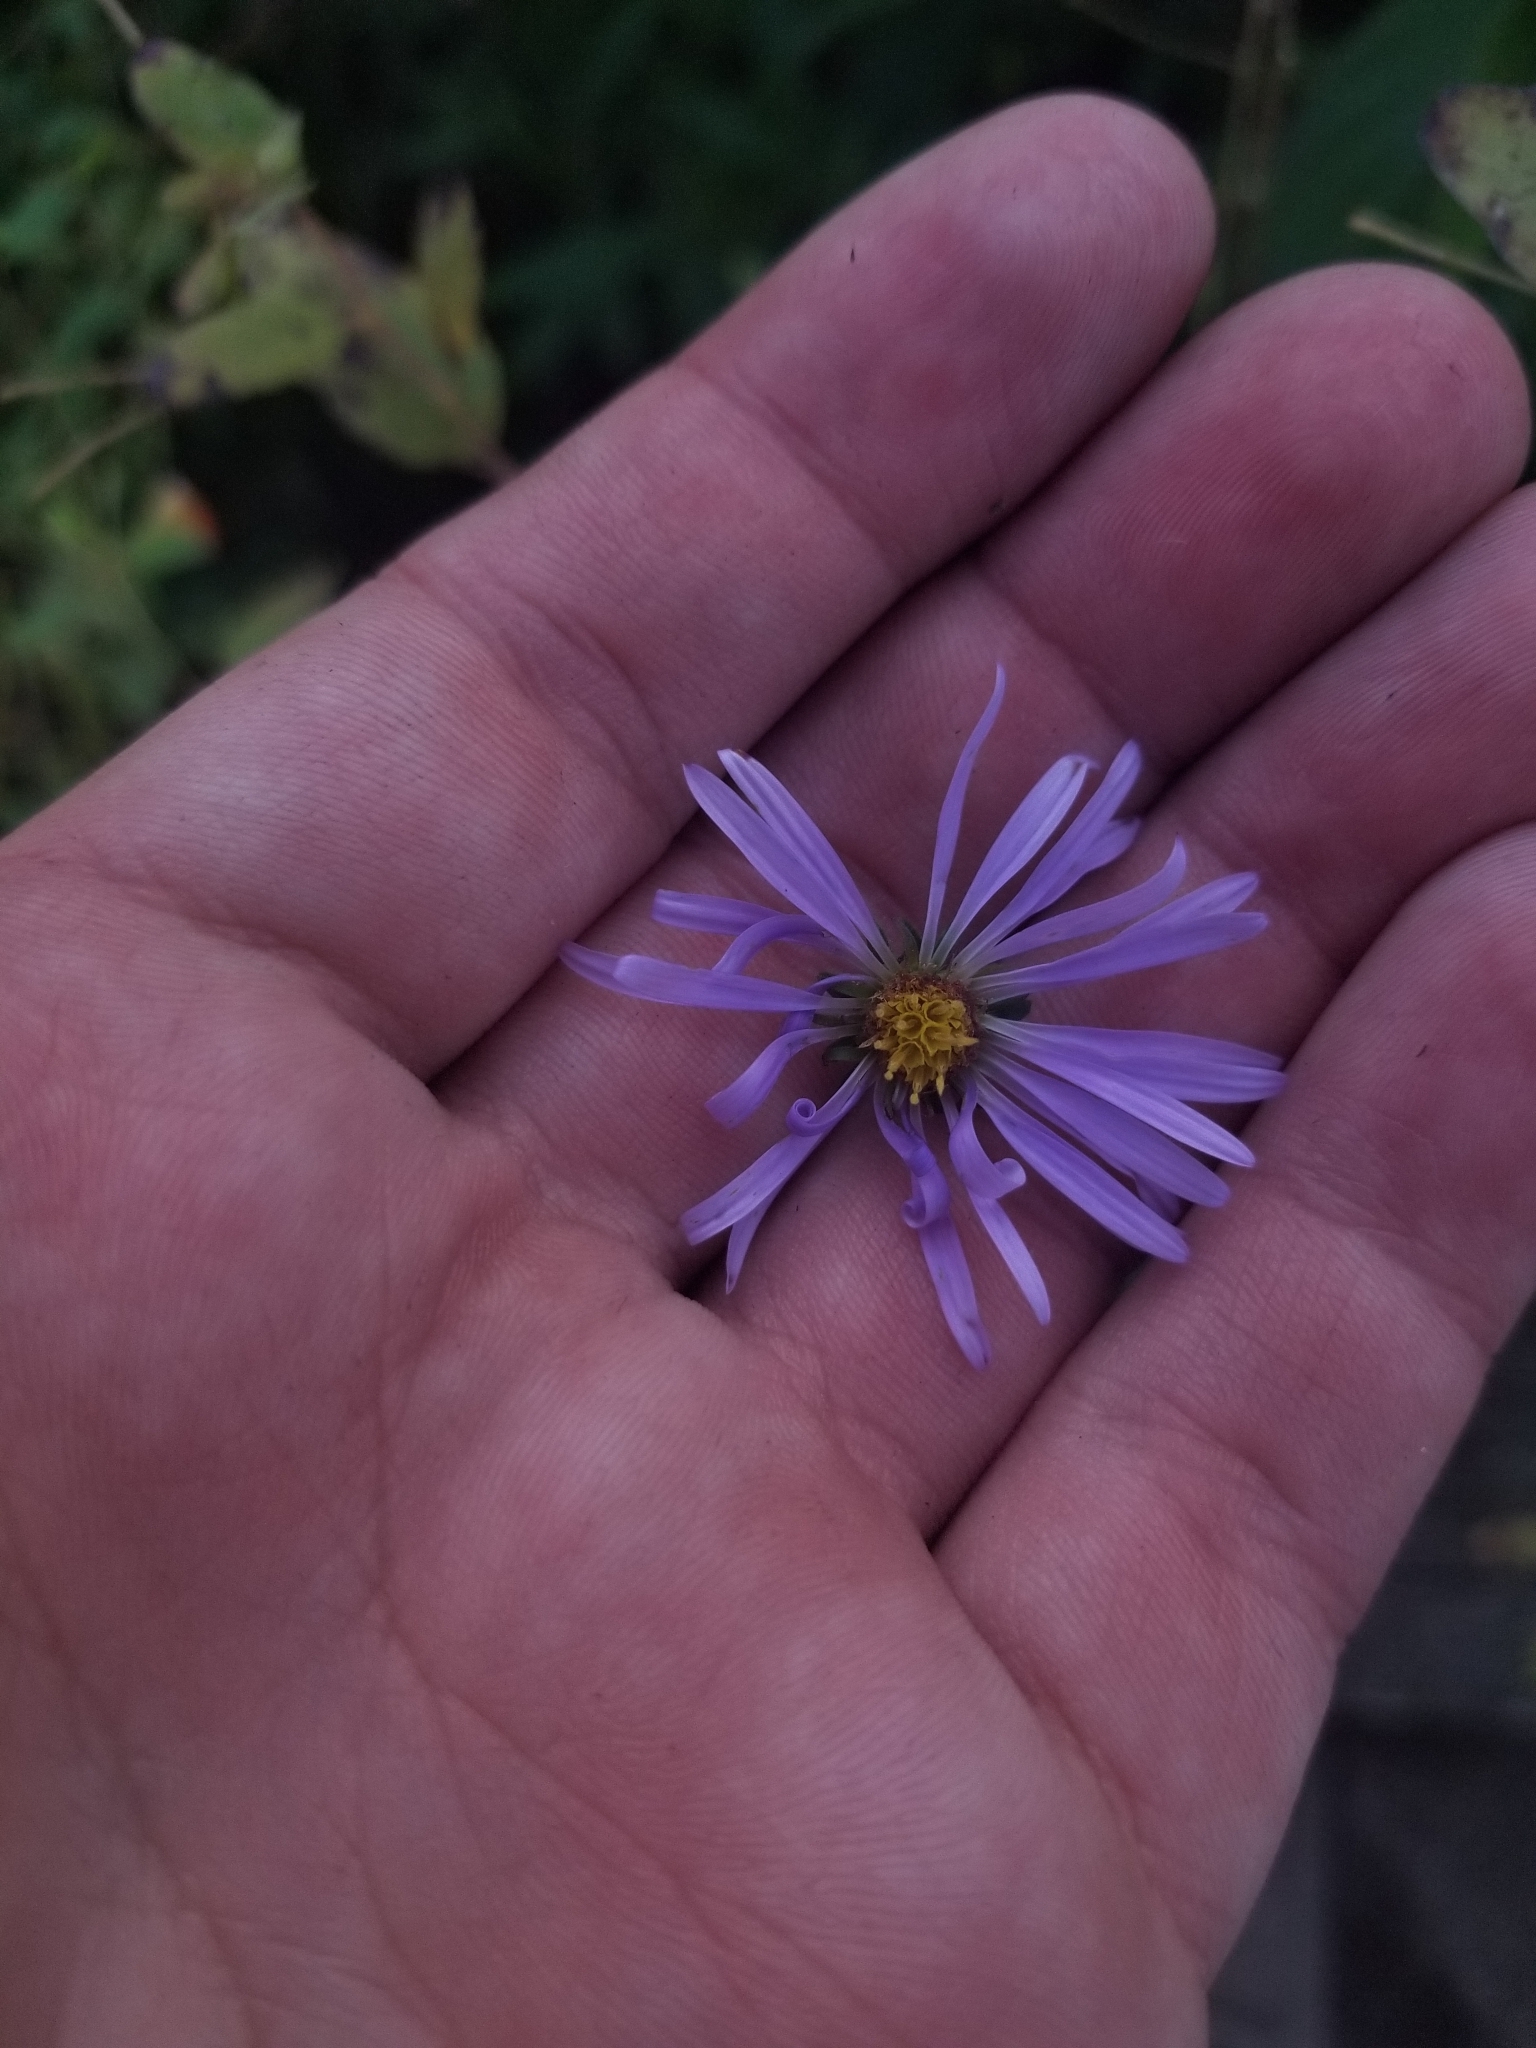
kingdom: Plantae
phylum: Tracheophyta
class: Magnoliopsida
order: Asterales
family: Asteraceae
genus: Symphyotrichum
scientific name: Symphyotrichum puniceum
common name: Bog aster
